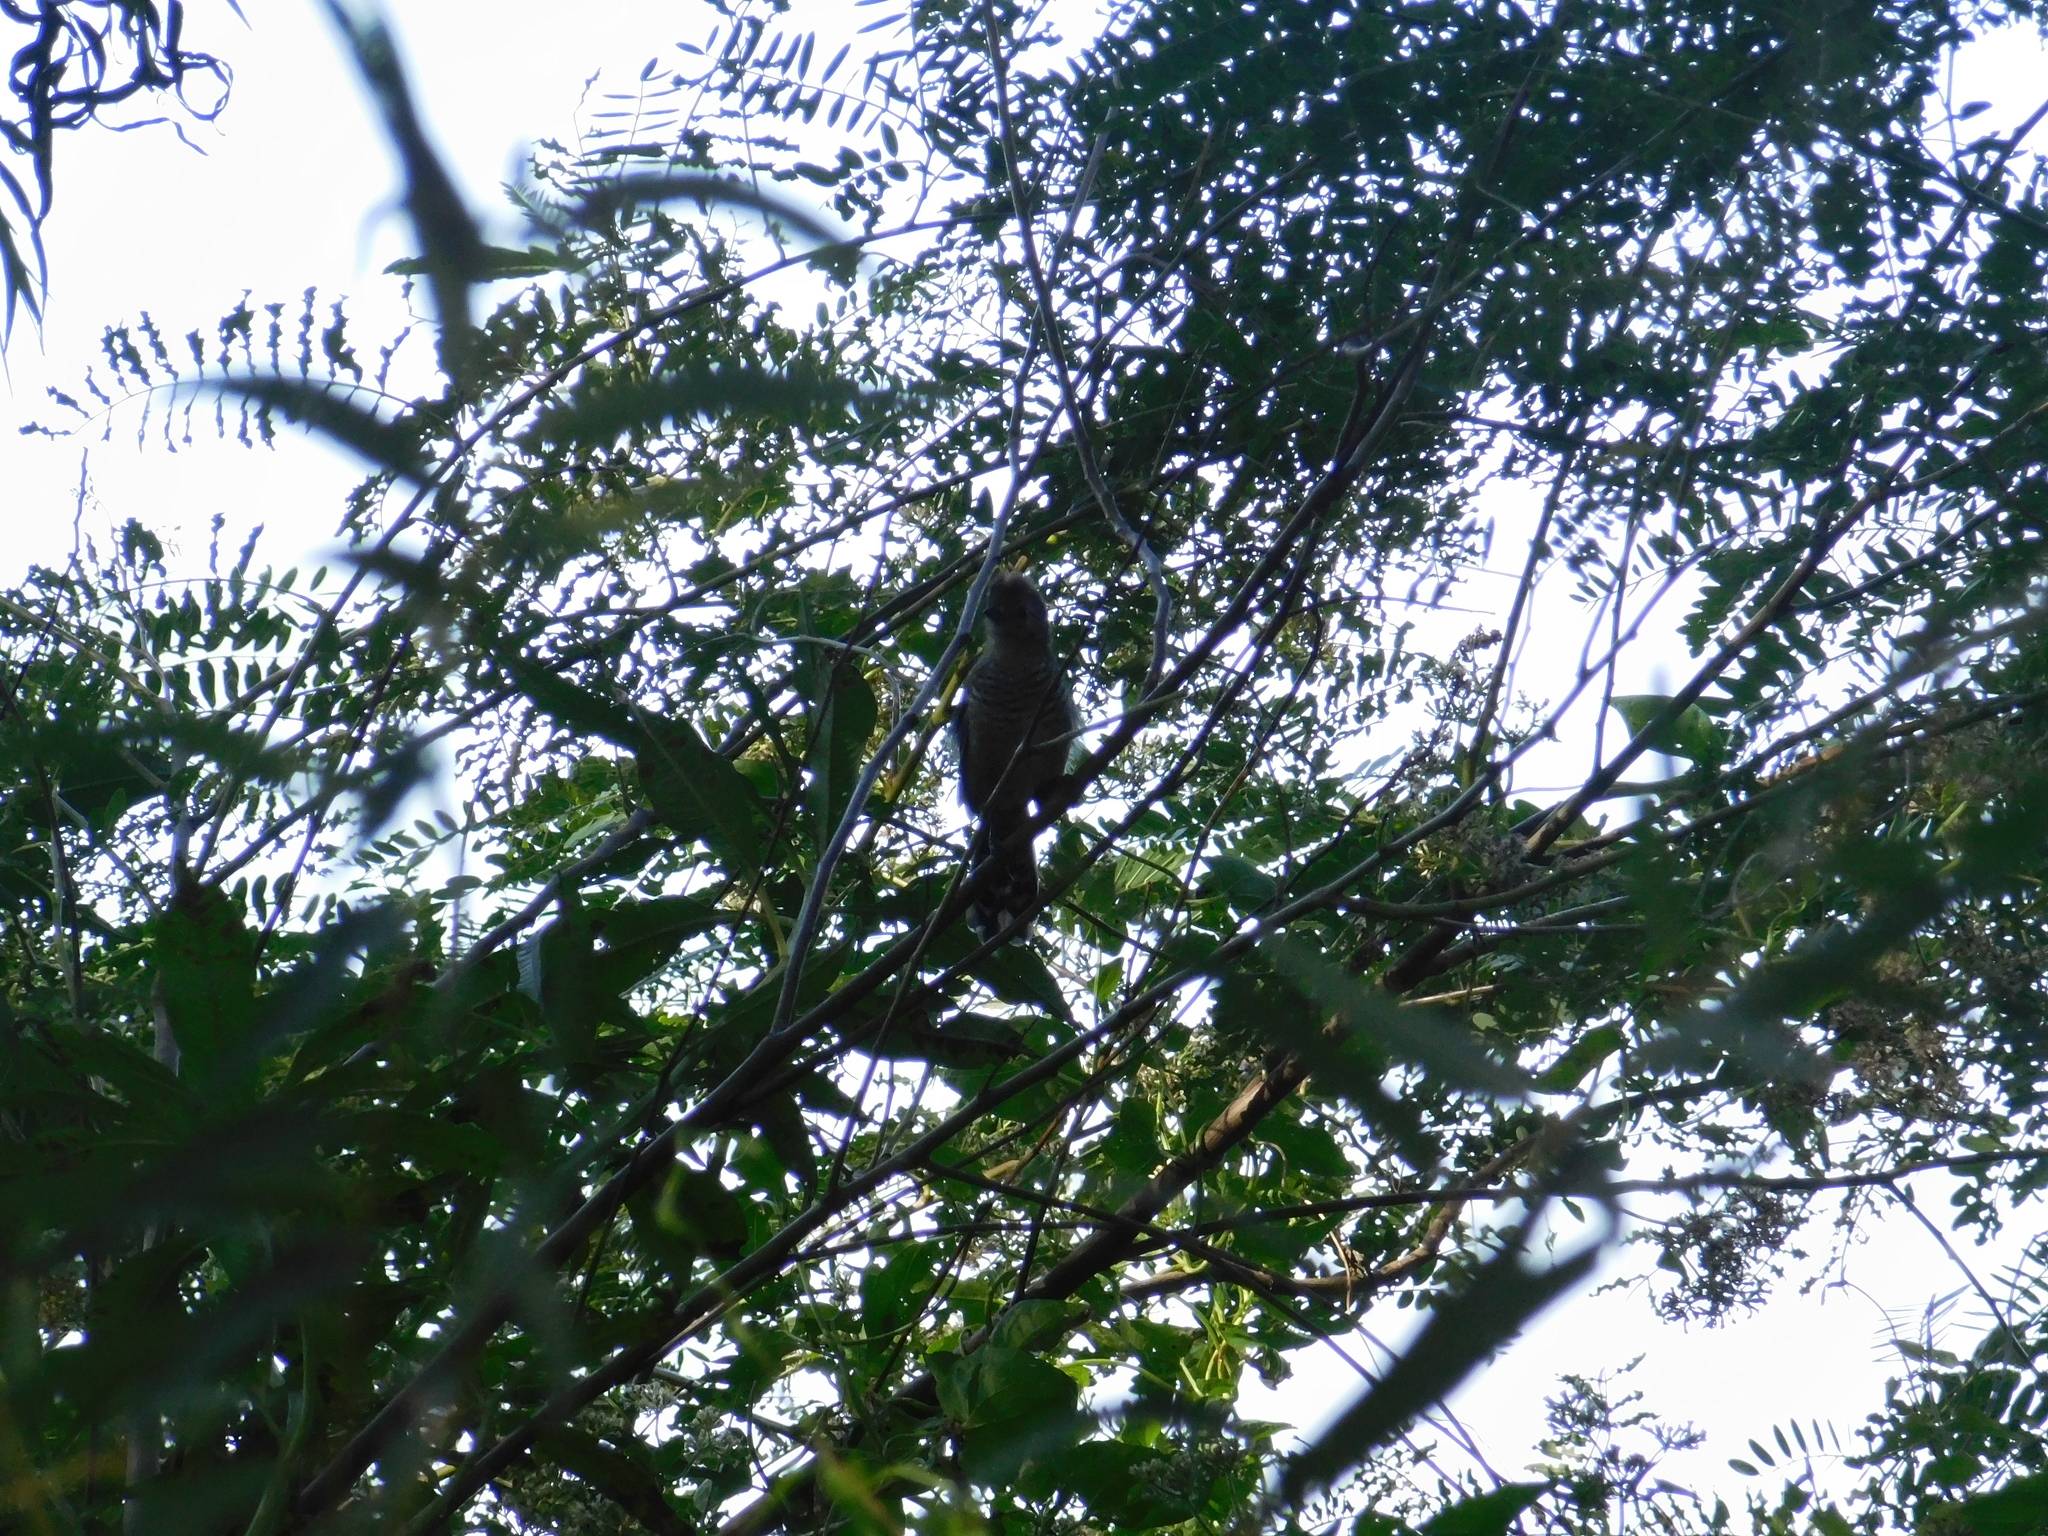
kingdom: Animalia
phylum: Chordata
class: Aves
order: Passeriformes
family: Thamnophilidae
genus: Thamnophilus
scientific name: Thamnophilus ruficapillus
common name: Rufous-capped antshrike
